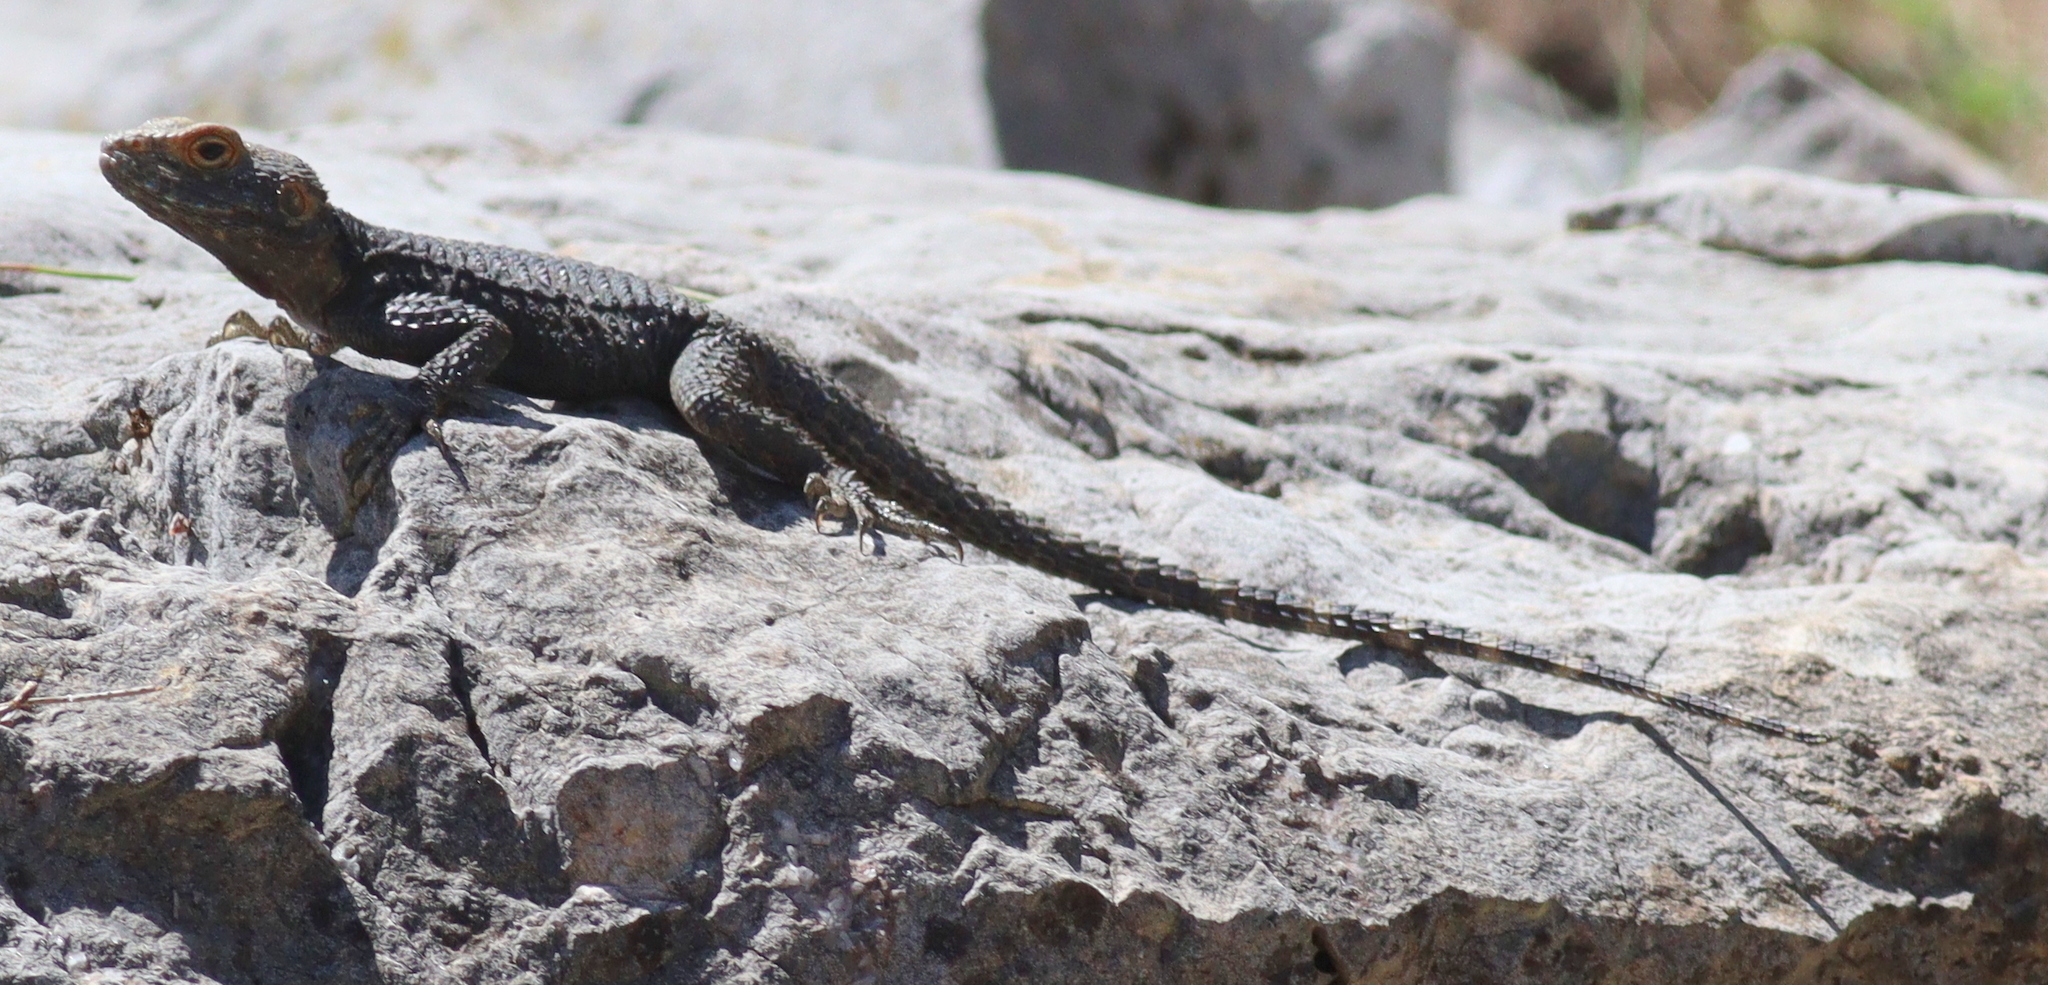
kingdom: Animalia
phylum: Chordata
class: Squamata
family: Agamidae
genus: Stellagama
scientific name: Stellagama stellio
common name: Starred agama
